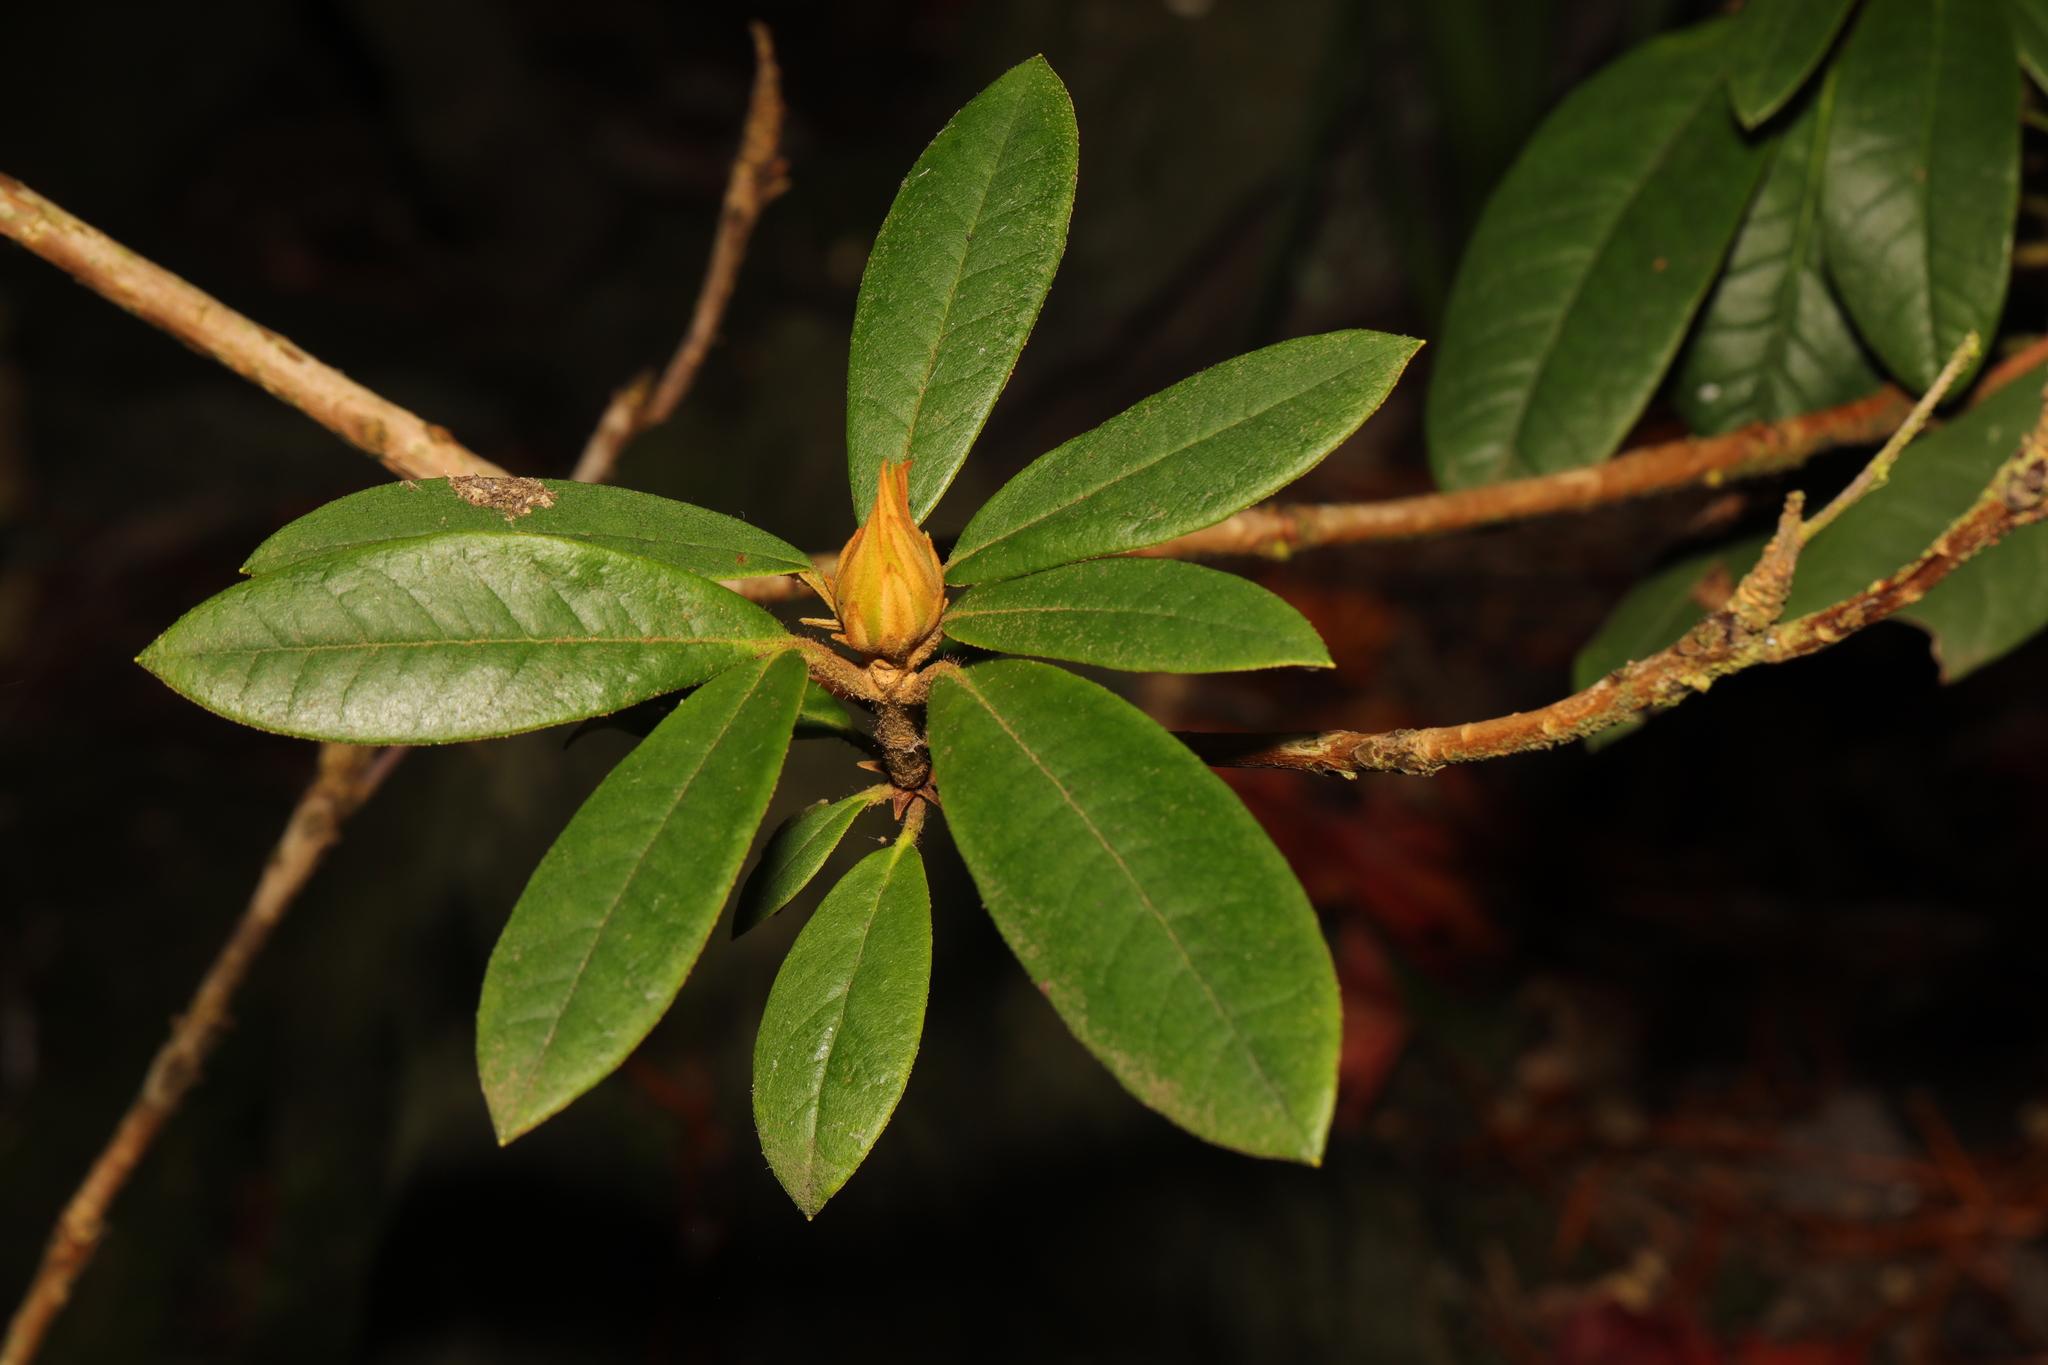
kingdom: Plantae
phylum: Tracheophyta
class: Magnoliopsida
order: Ericales
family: Ericaceae
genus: Rhododendron
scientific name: Rhododendron ponticum
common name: Rhododendron
